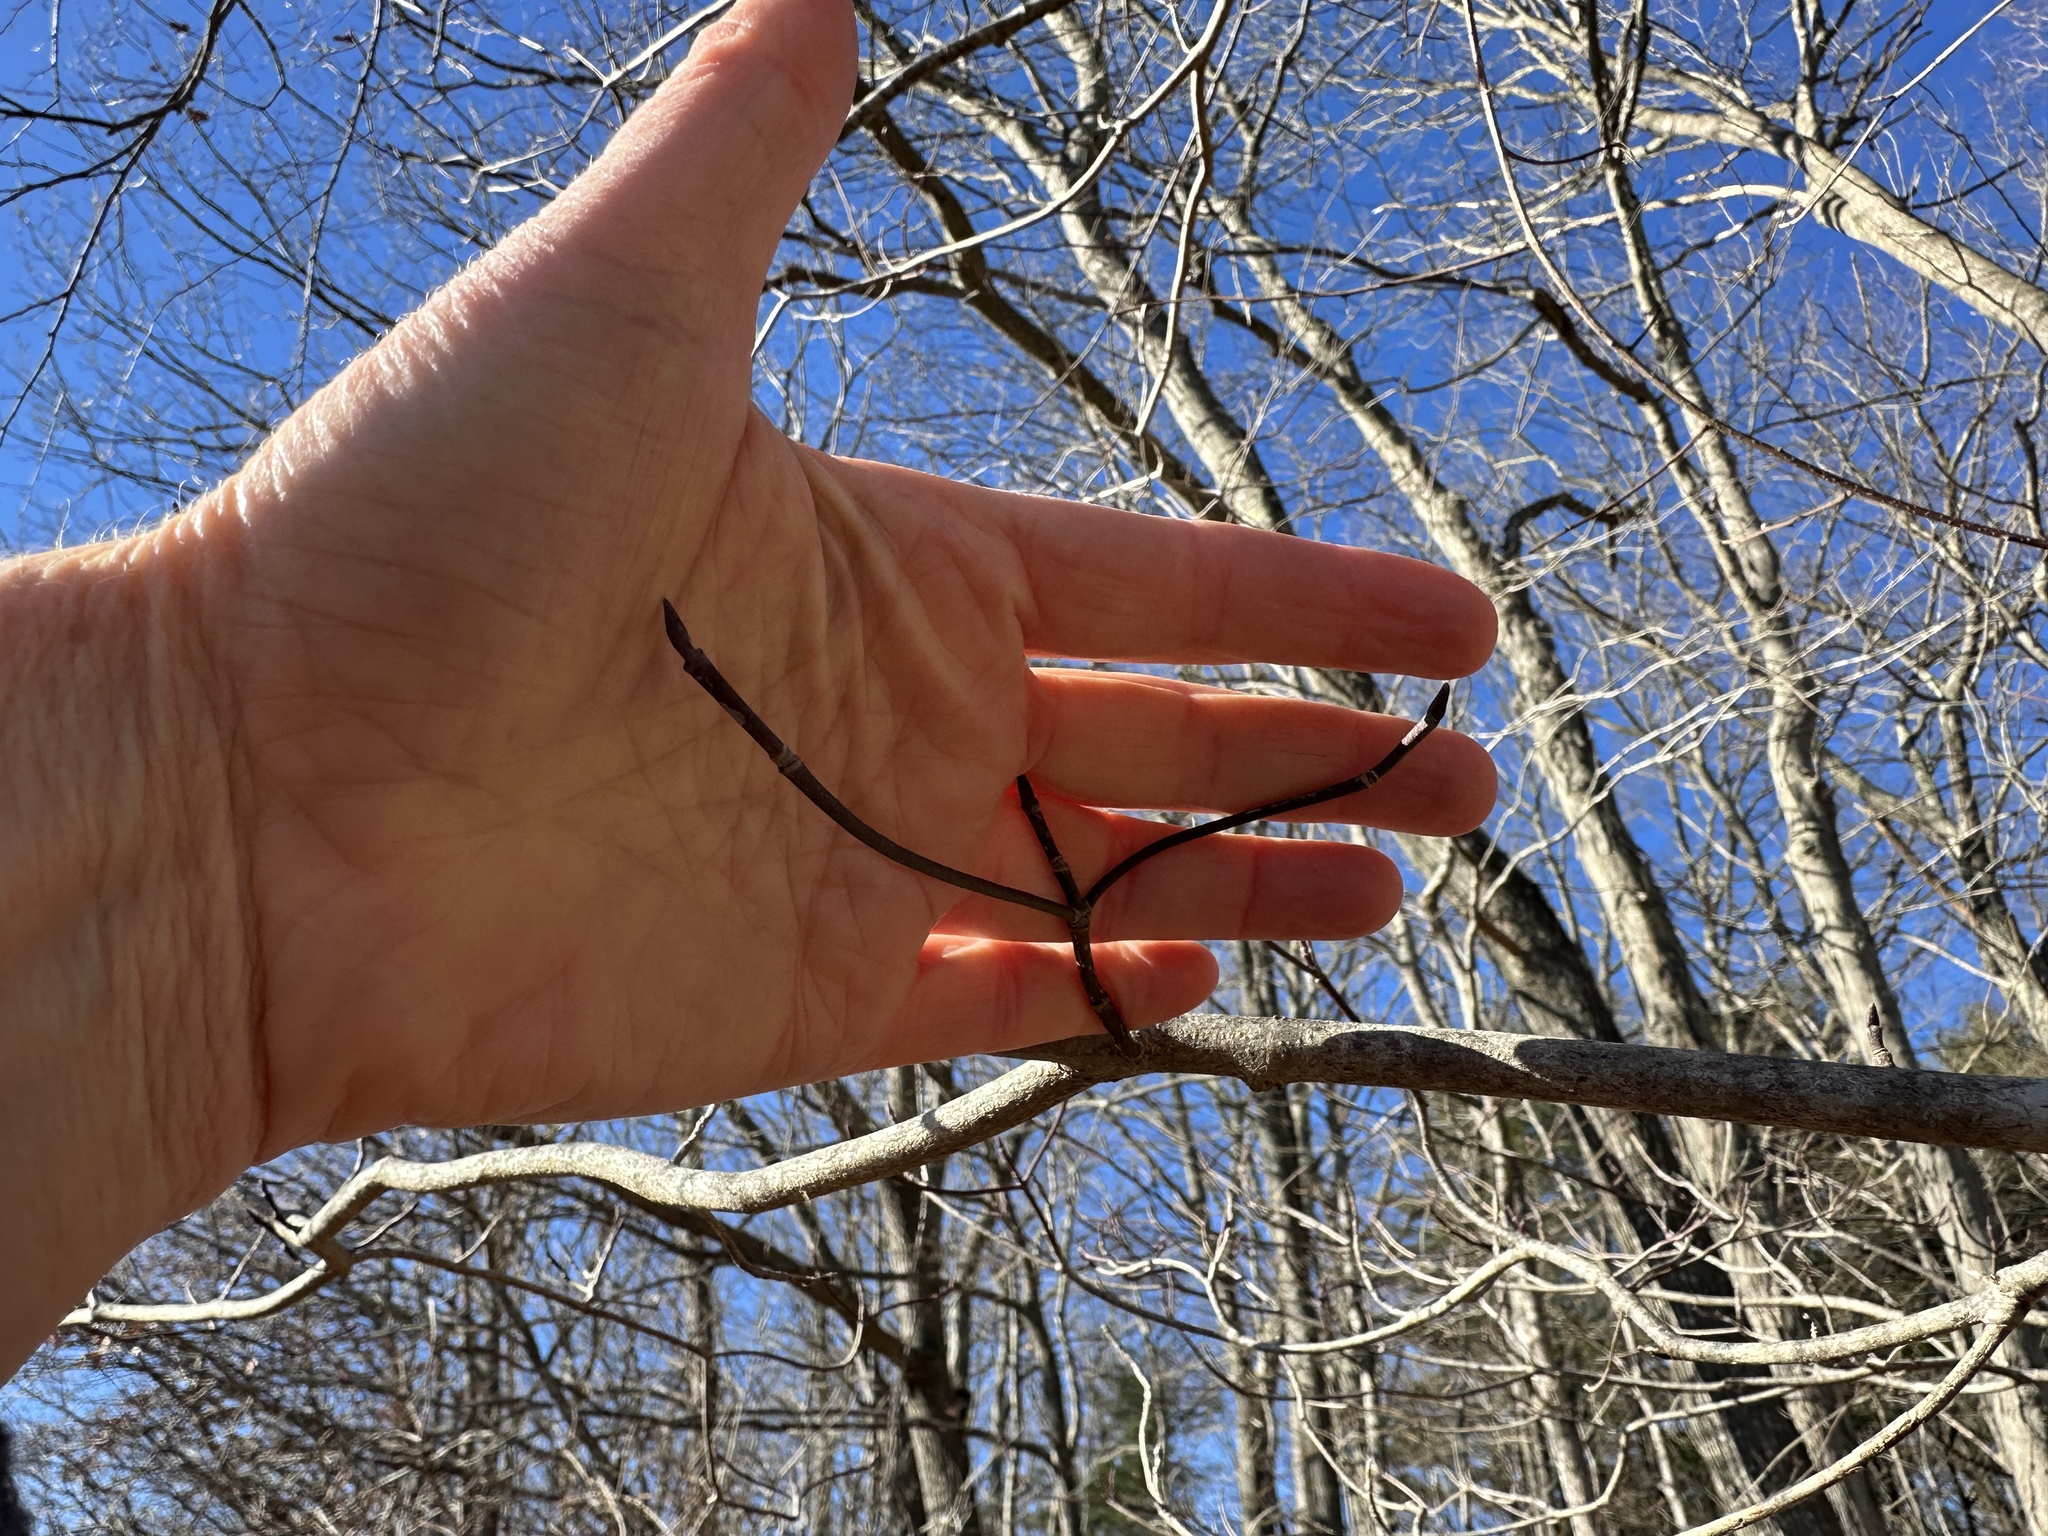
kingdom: Plantae
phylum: Tracheophyta
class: Magnoliopsida
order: Cornales
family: Cornaceae
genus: Cornus
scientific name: Cornus florida
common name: Flowering dogwood
